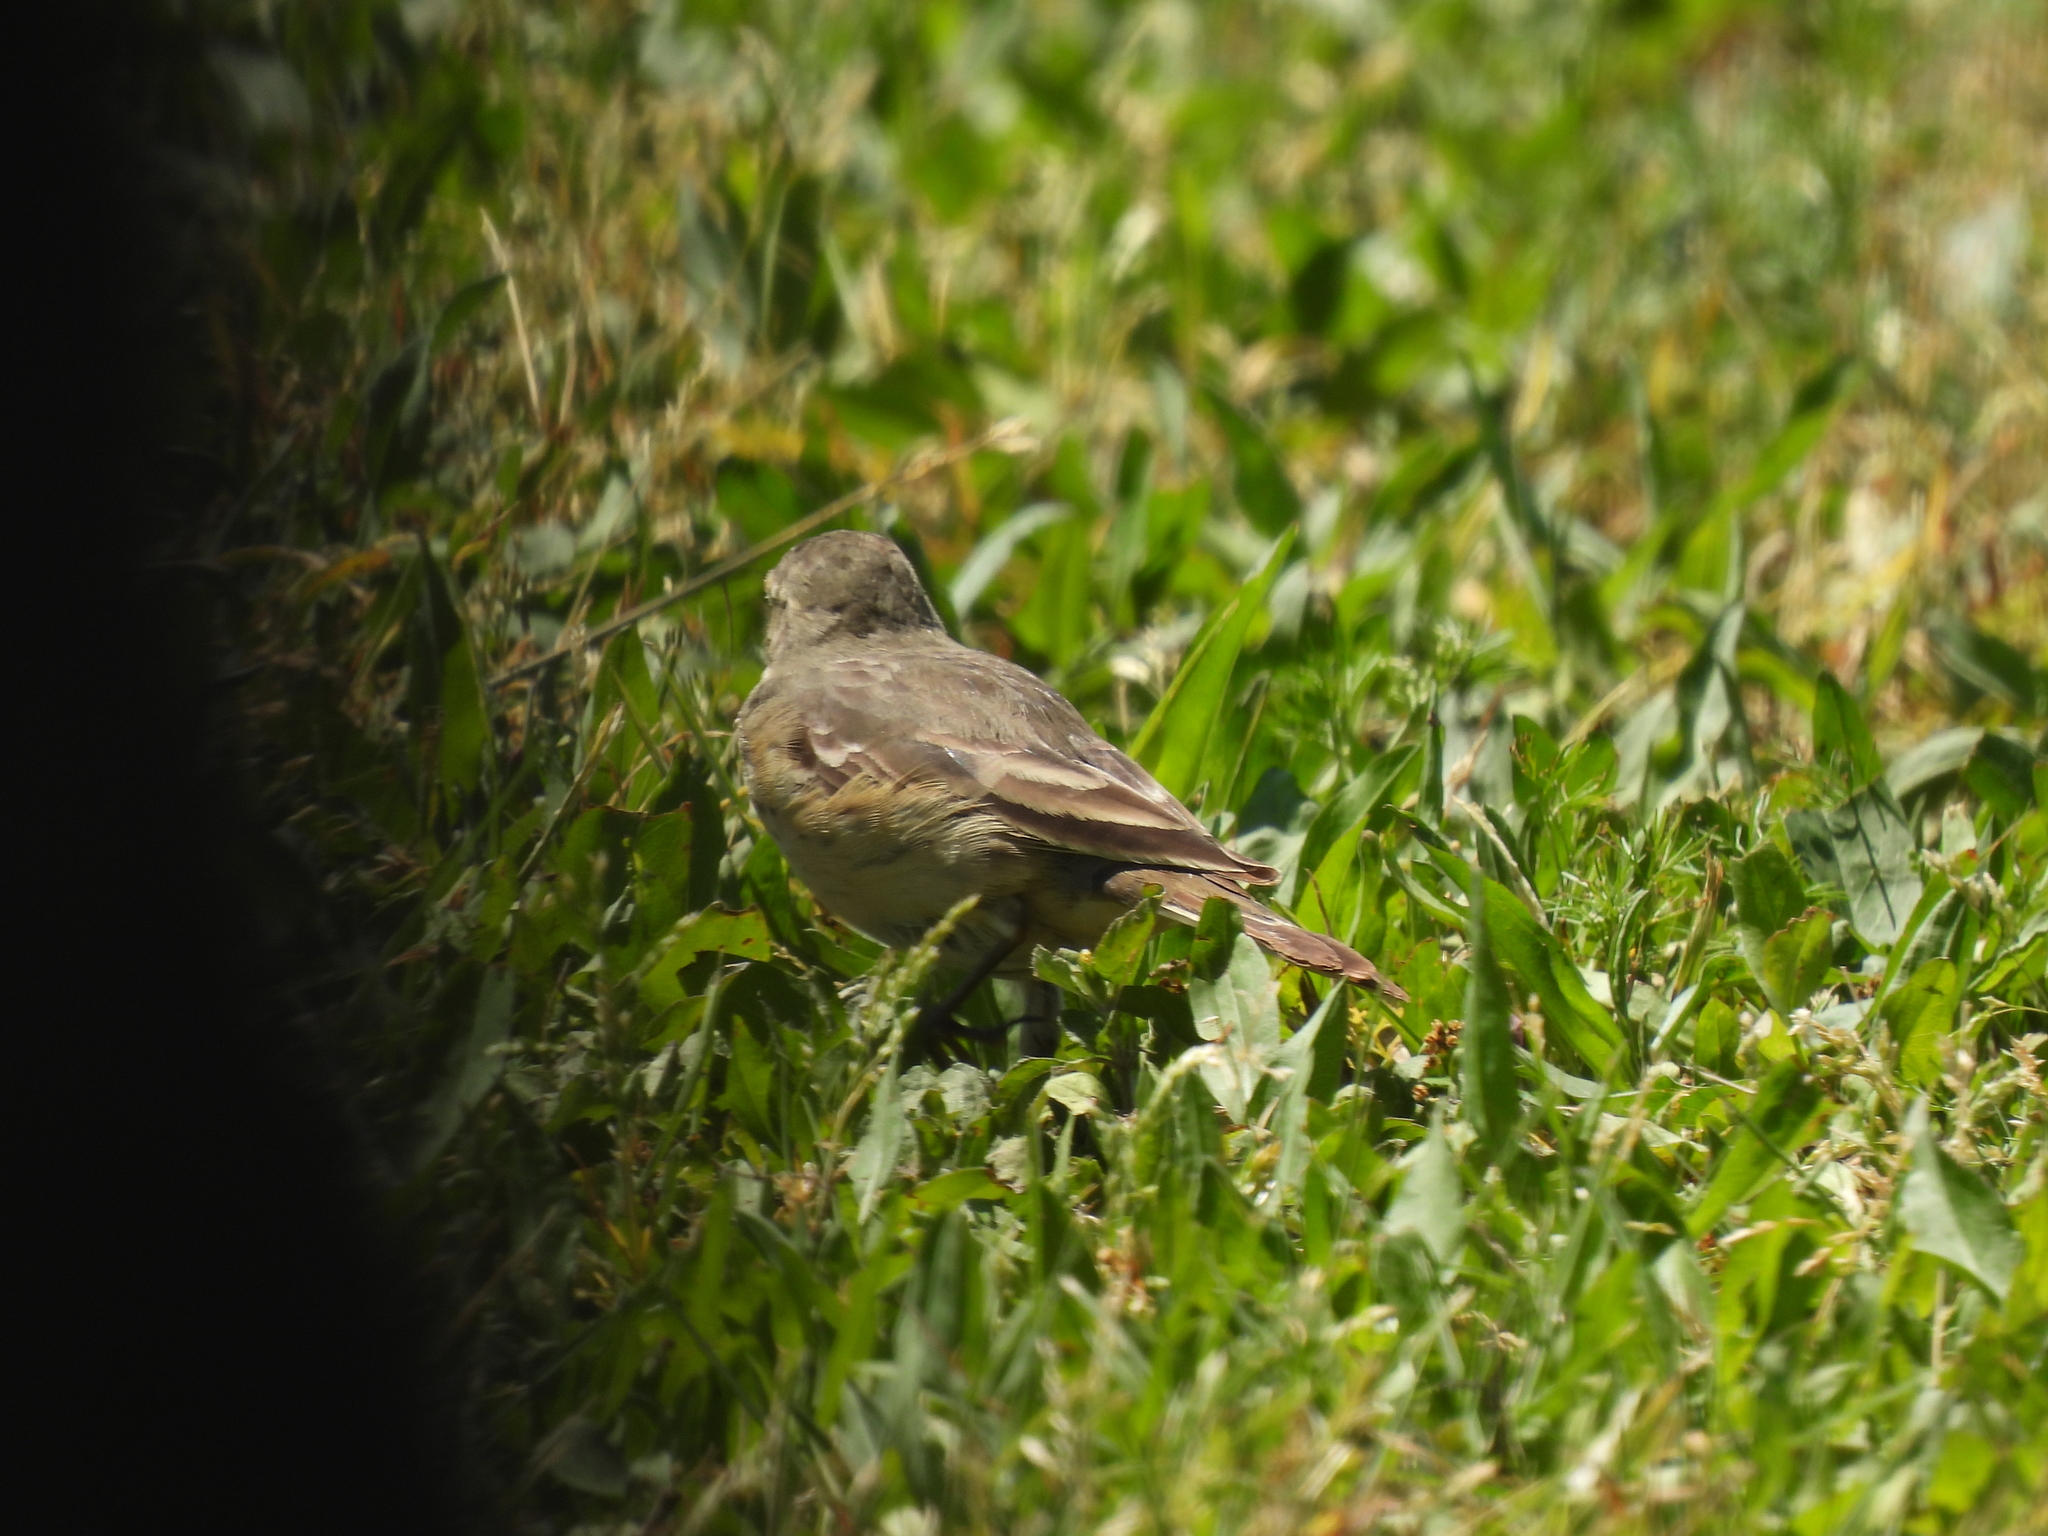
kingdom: Animalia
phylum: Chordata
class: Aves
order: Passeriformes
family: Motacillidae
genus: Anthus
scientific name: Anthus rubescens
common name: Buff-bellied pipit
